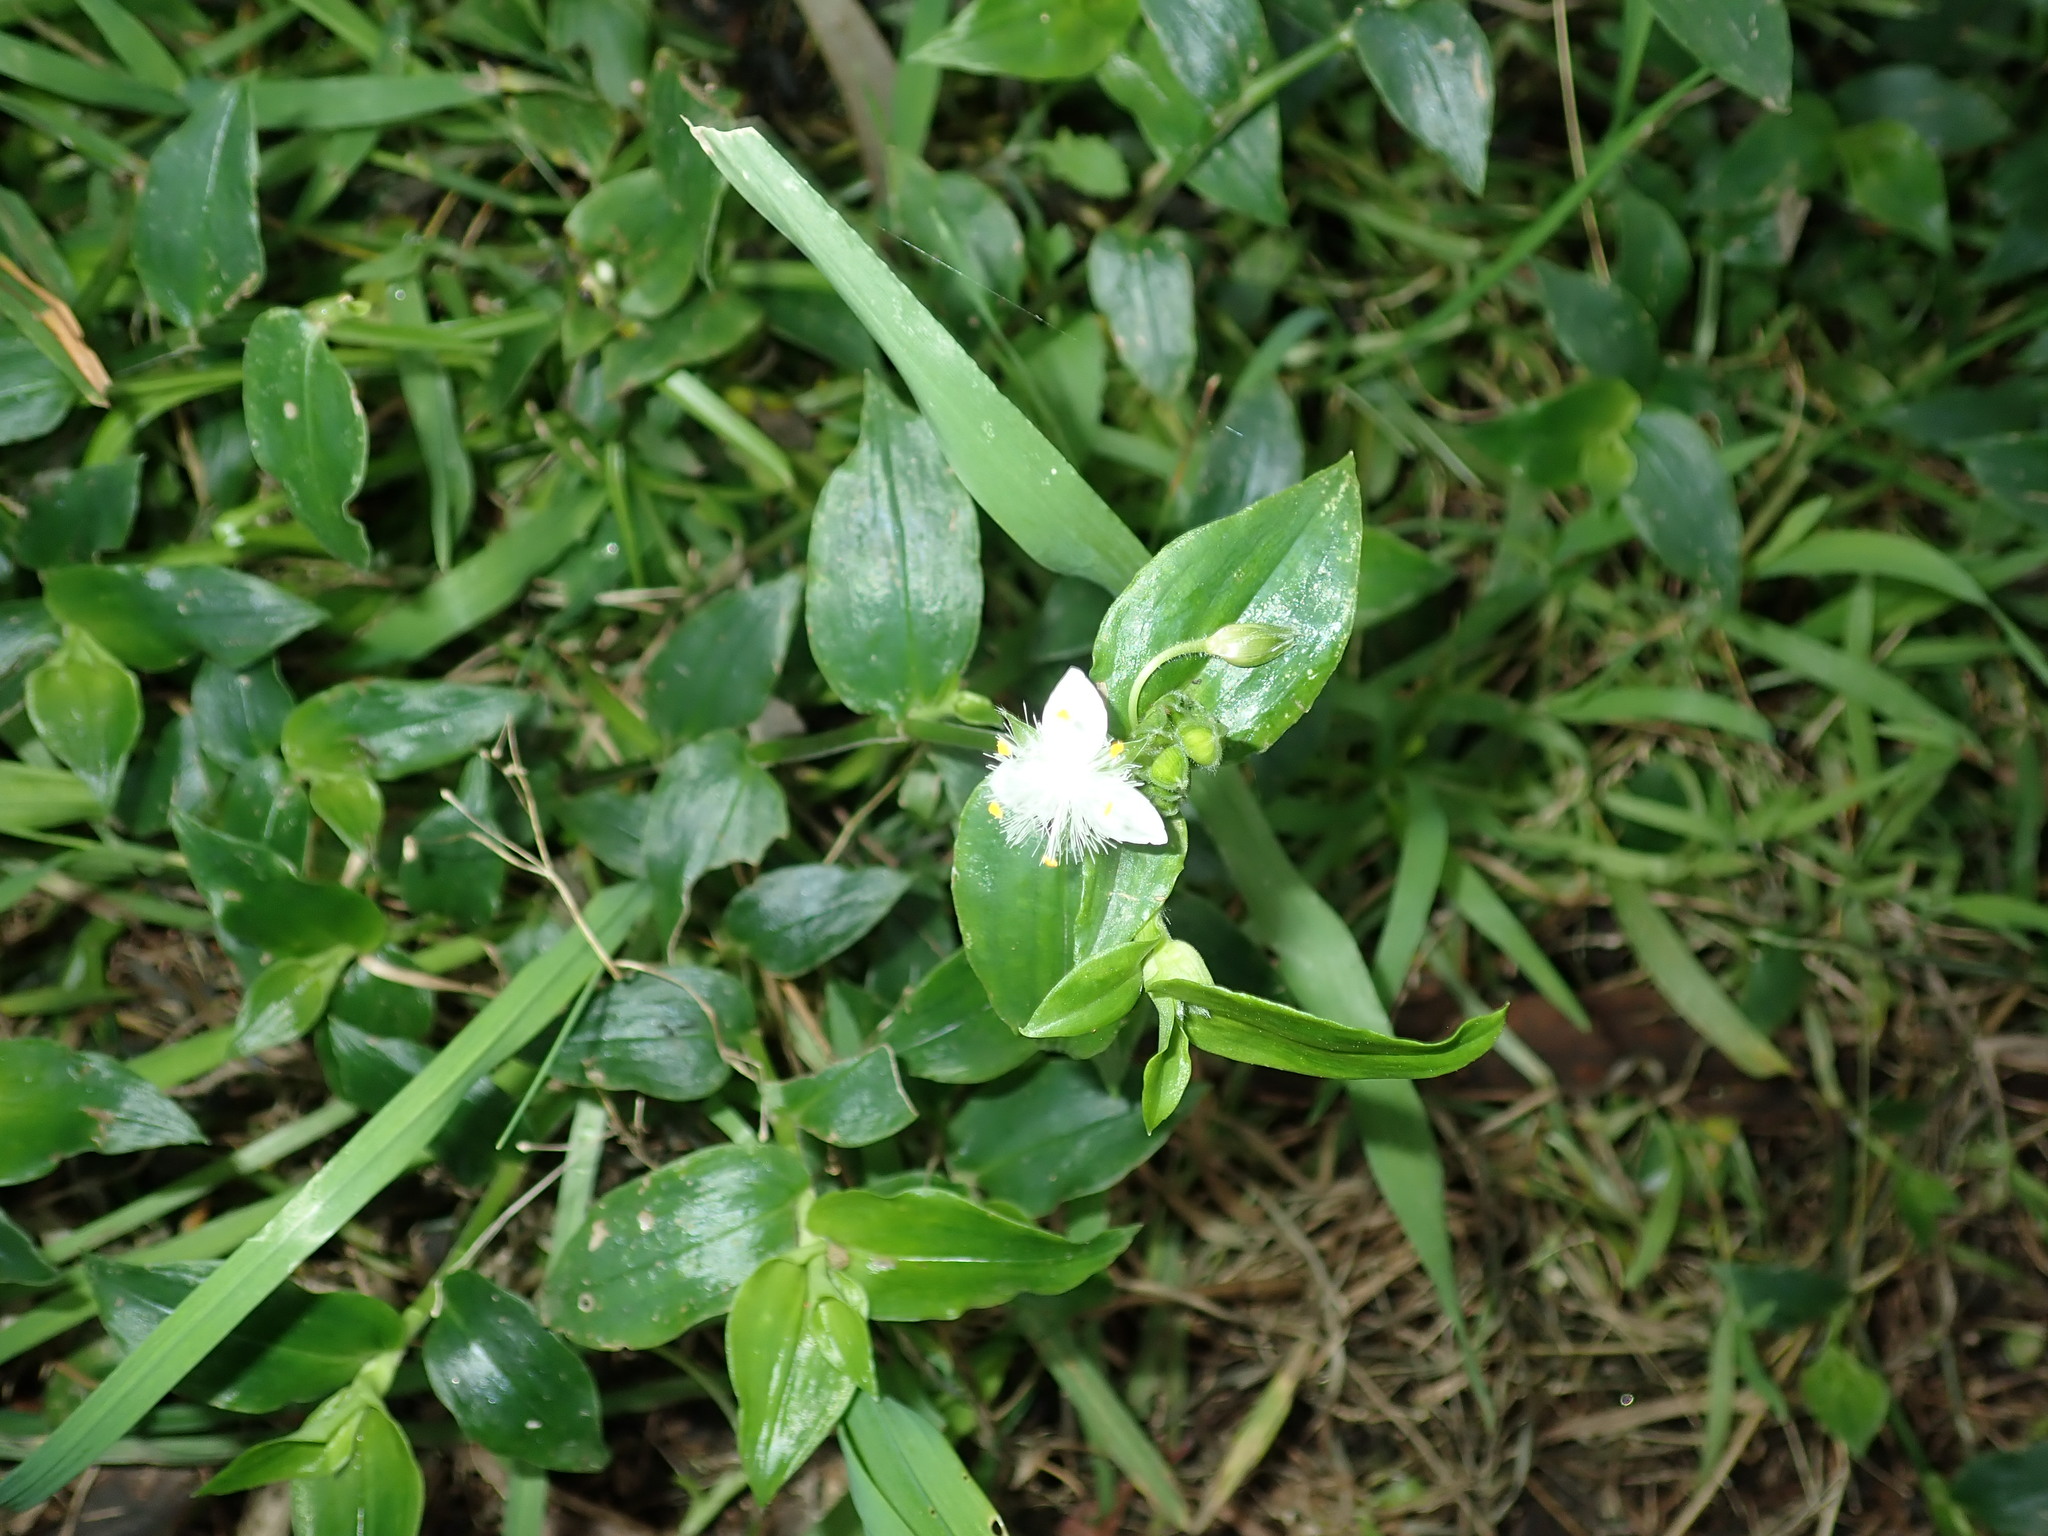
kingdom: Plantae
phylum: Tracheophyta
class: Liliopsida
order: Commelinales
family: Commelinaceae
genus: Tradescantia
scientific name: Tradescantia fluminensis
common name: Wandering-jew
